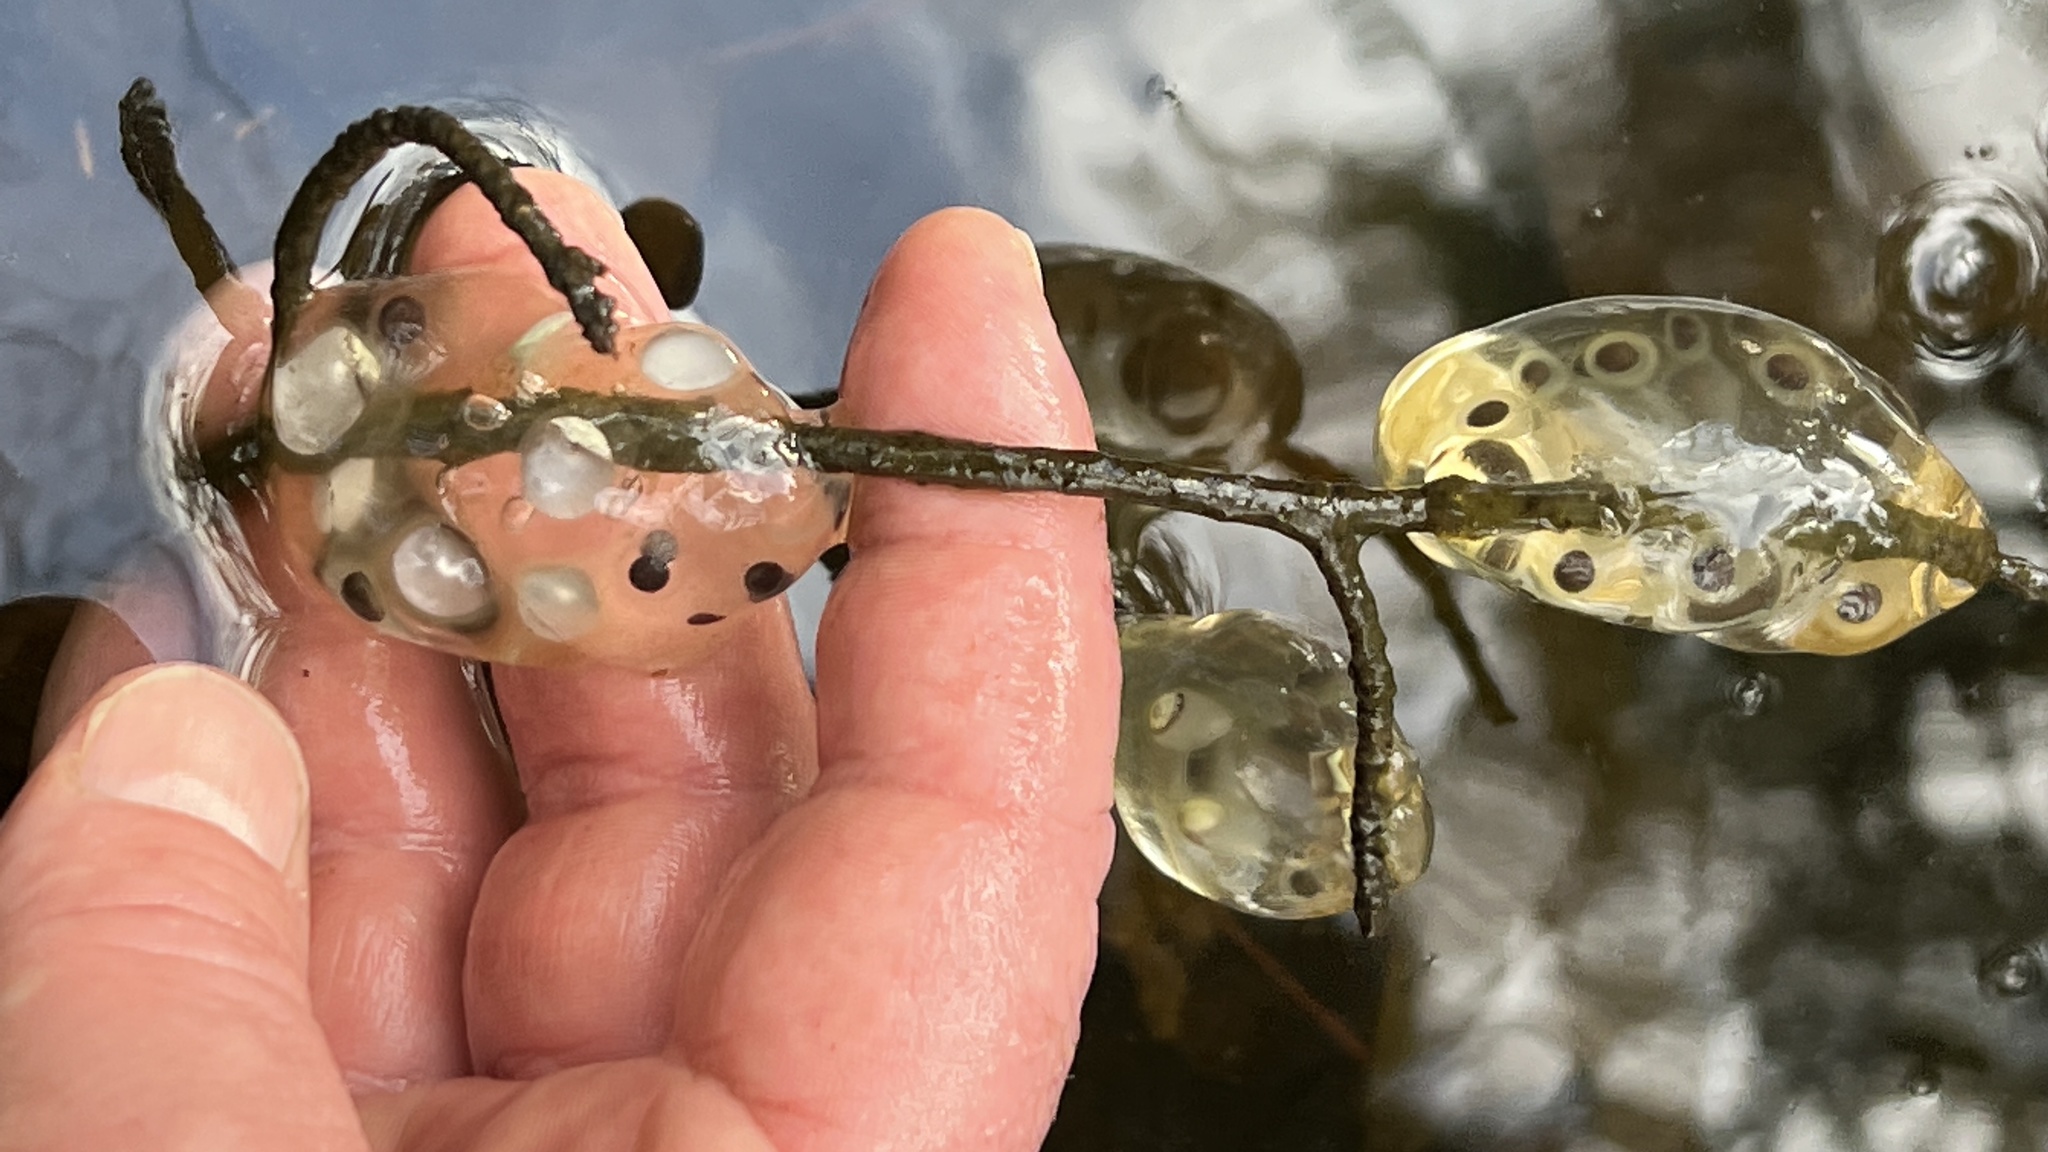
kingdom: Animalia
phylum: Chordata
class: Amphibia
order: Caudata
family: Ambystomatidae
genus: Ambystoma
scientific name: Ambystoma jeffersonianum
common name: Jefferson salamander
